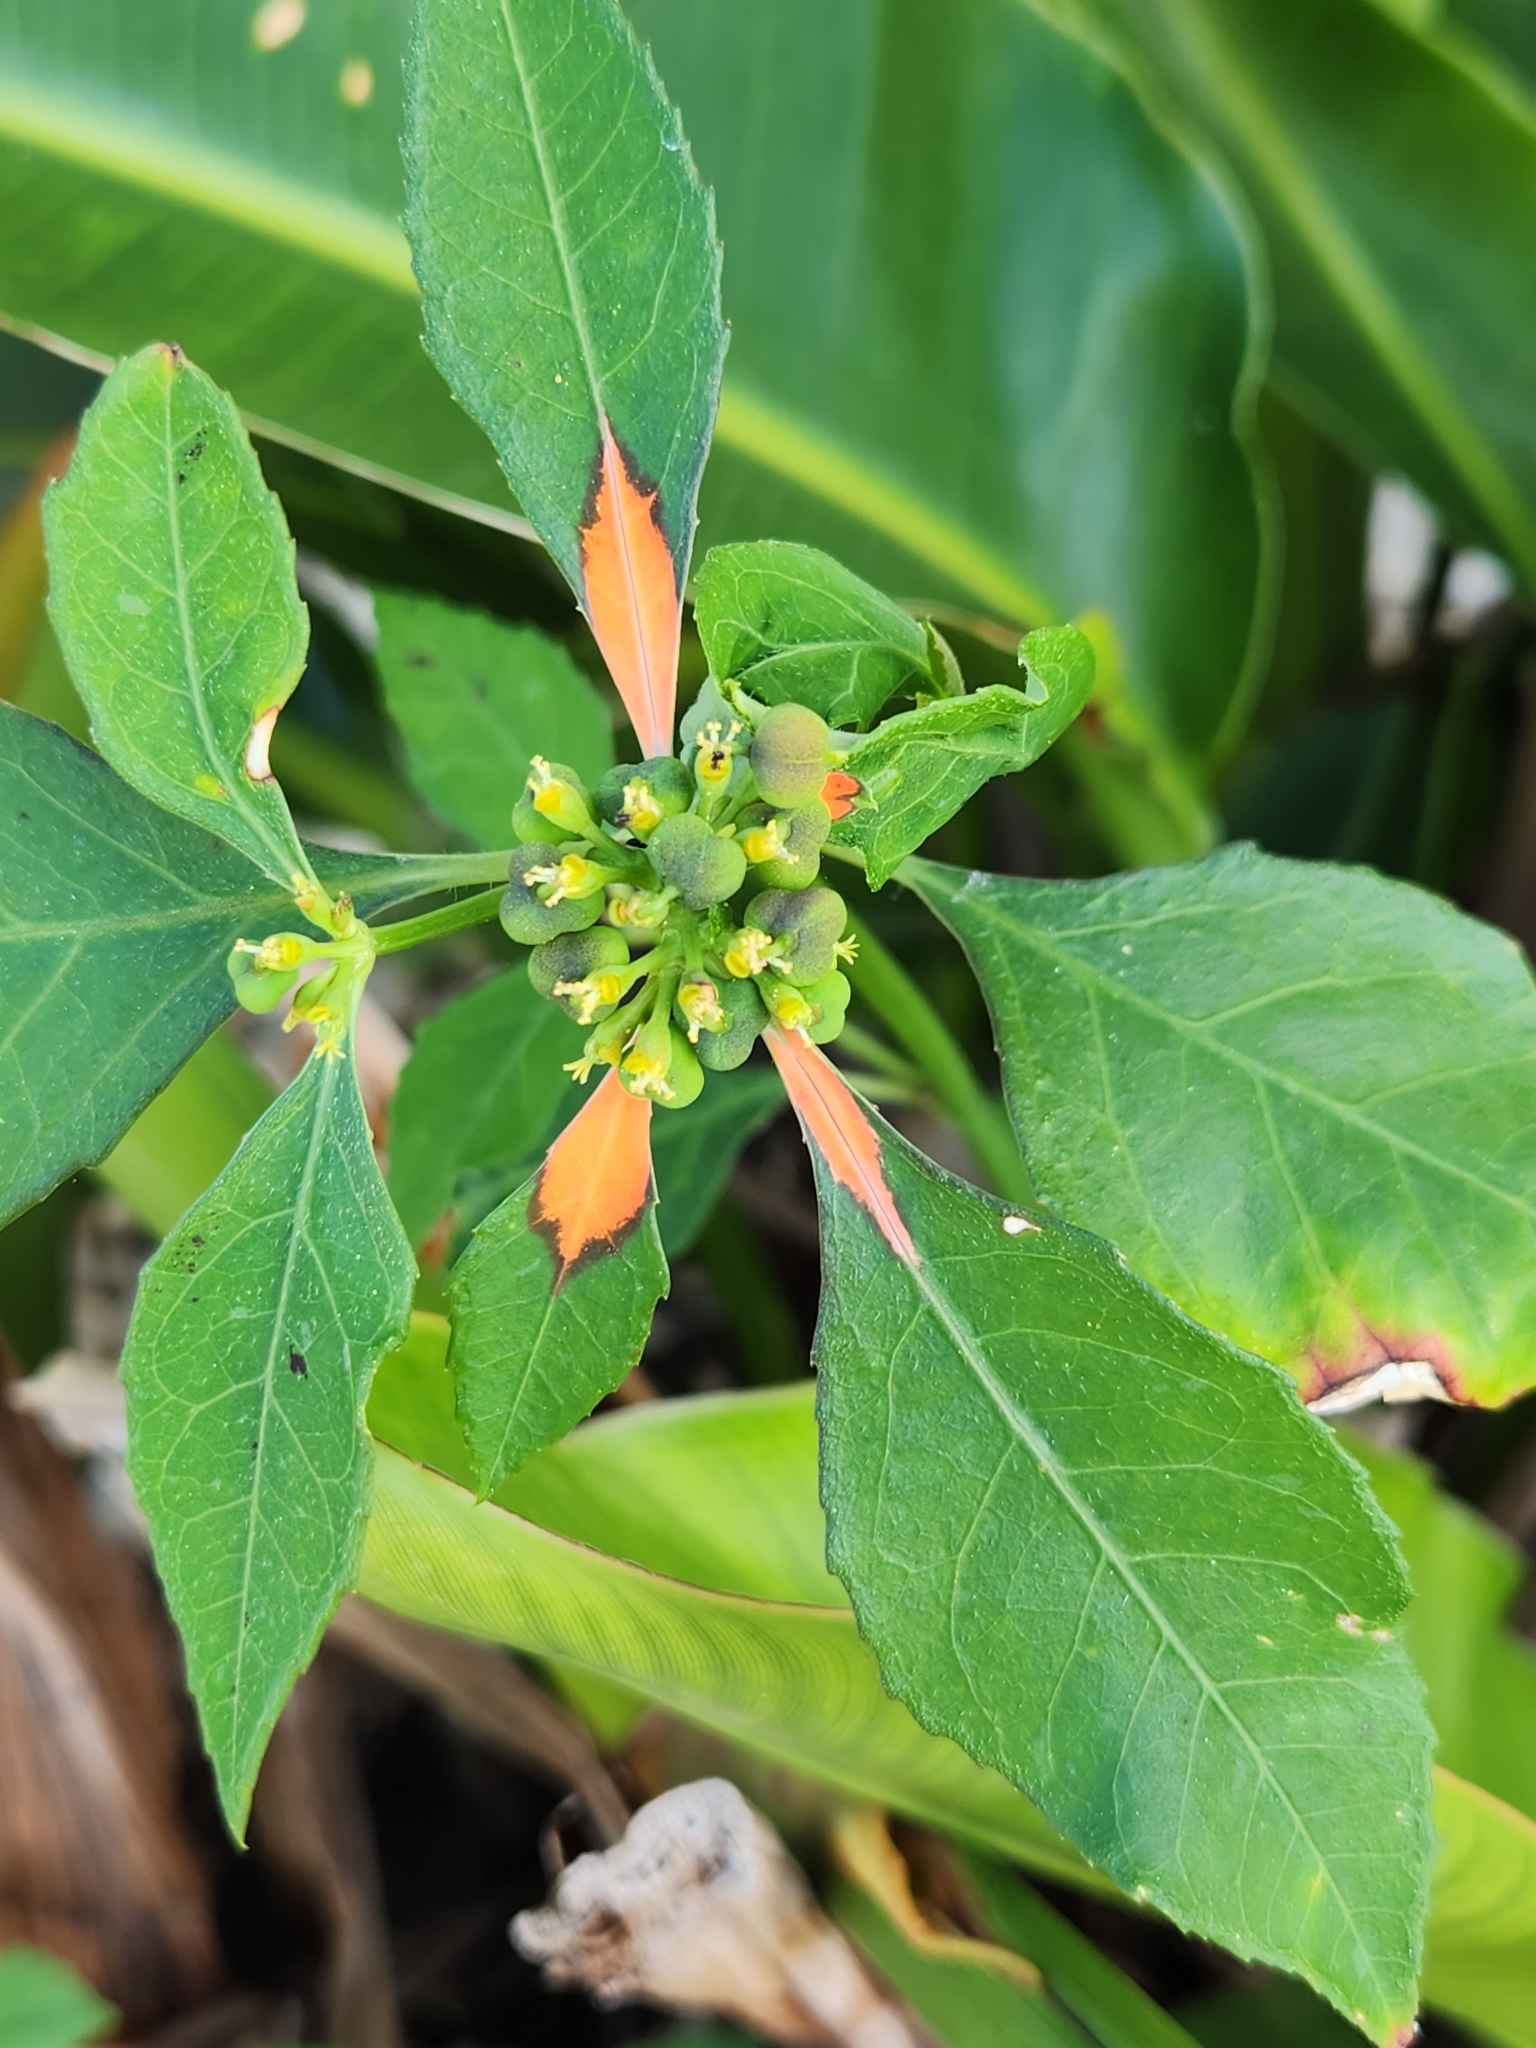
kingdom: Plantae
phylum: Tracheophyta
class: Magnoliopsida
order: Malpighiales
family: Euphorbiaceae
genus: Euphorbia
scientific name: Euphorbia heterophylla
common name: Mexican fireplant
